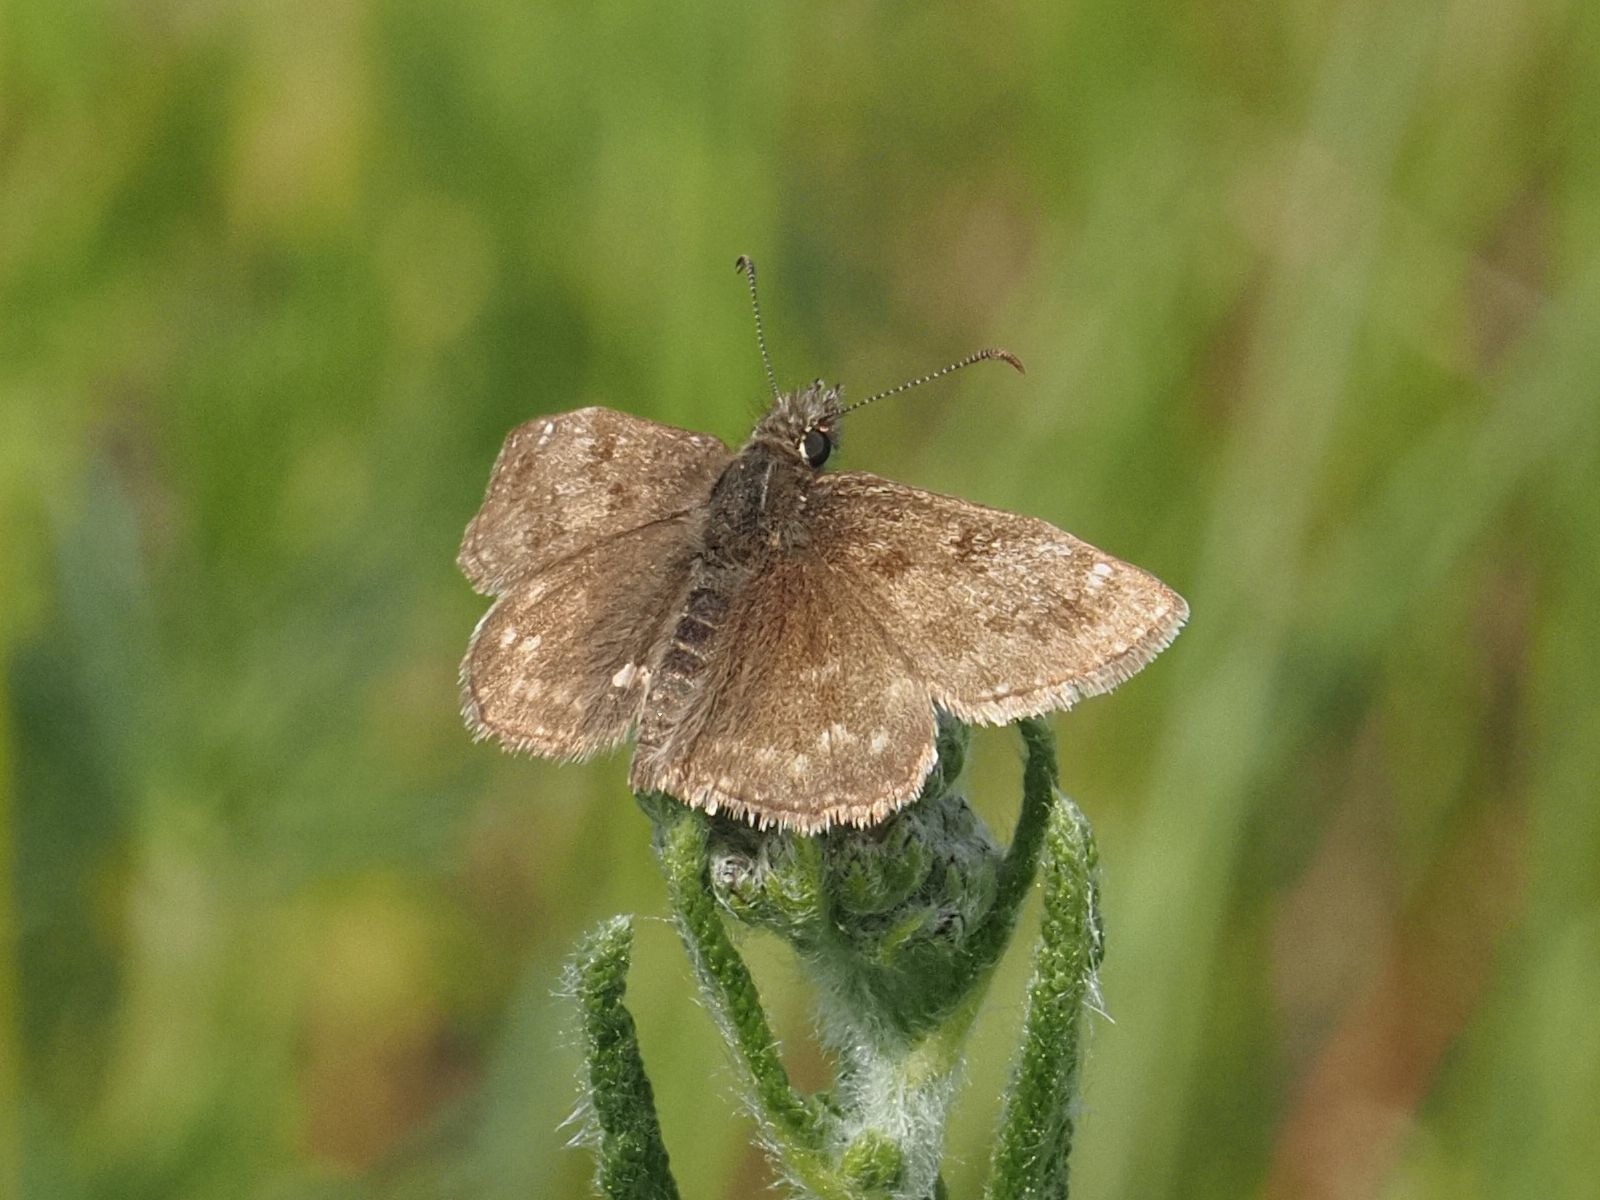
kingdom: Animalia
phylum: Arthropoda
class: Insecta
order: Lepidoptera
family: Hesperiidae
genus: Erynnis
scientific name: Erynnis tages
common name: Dingy skipper
